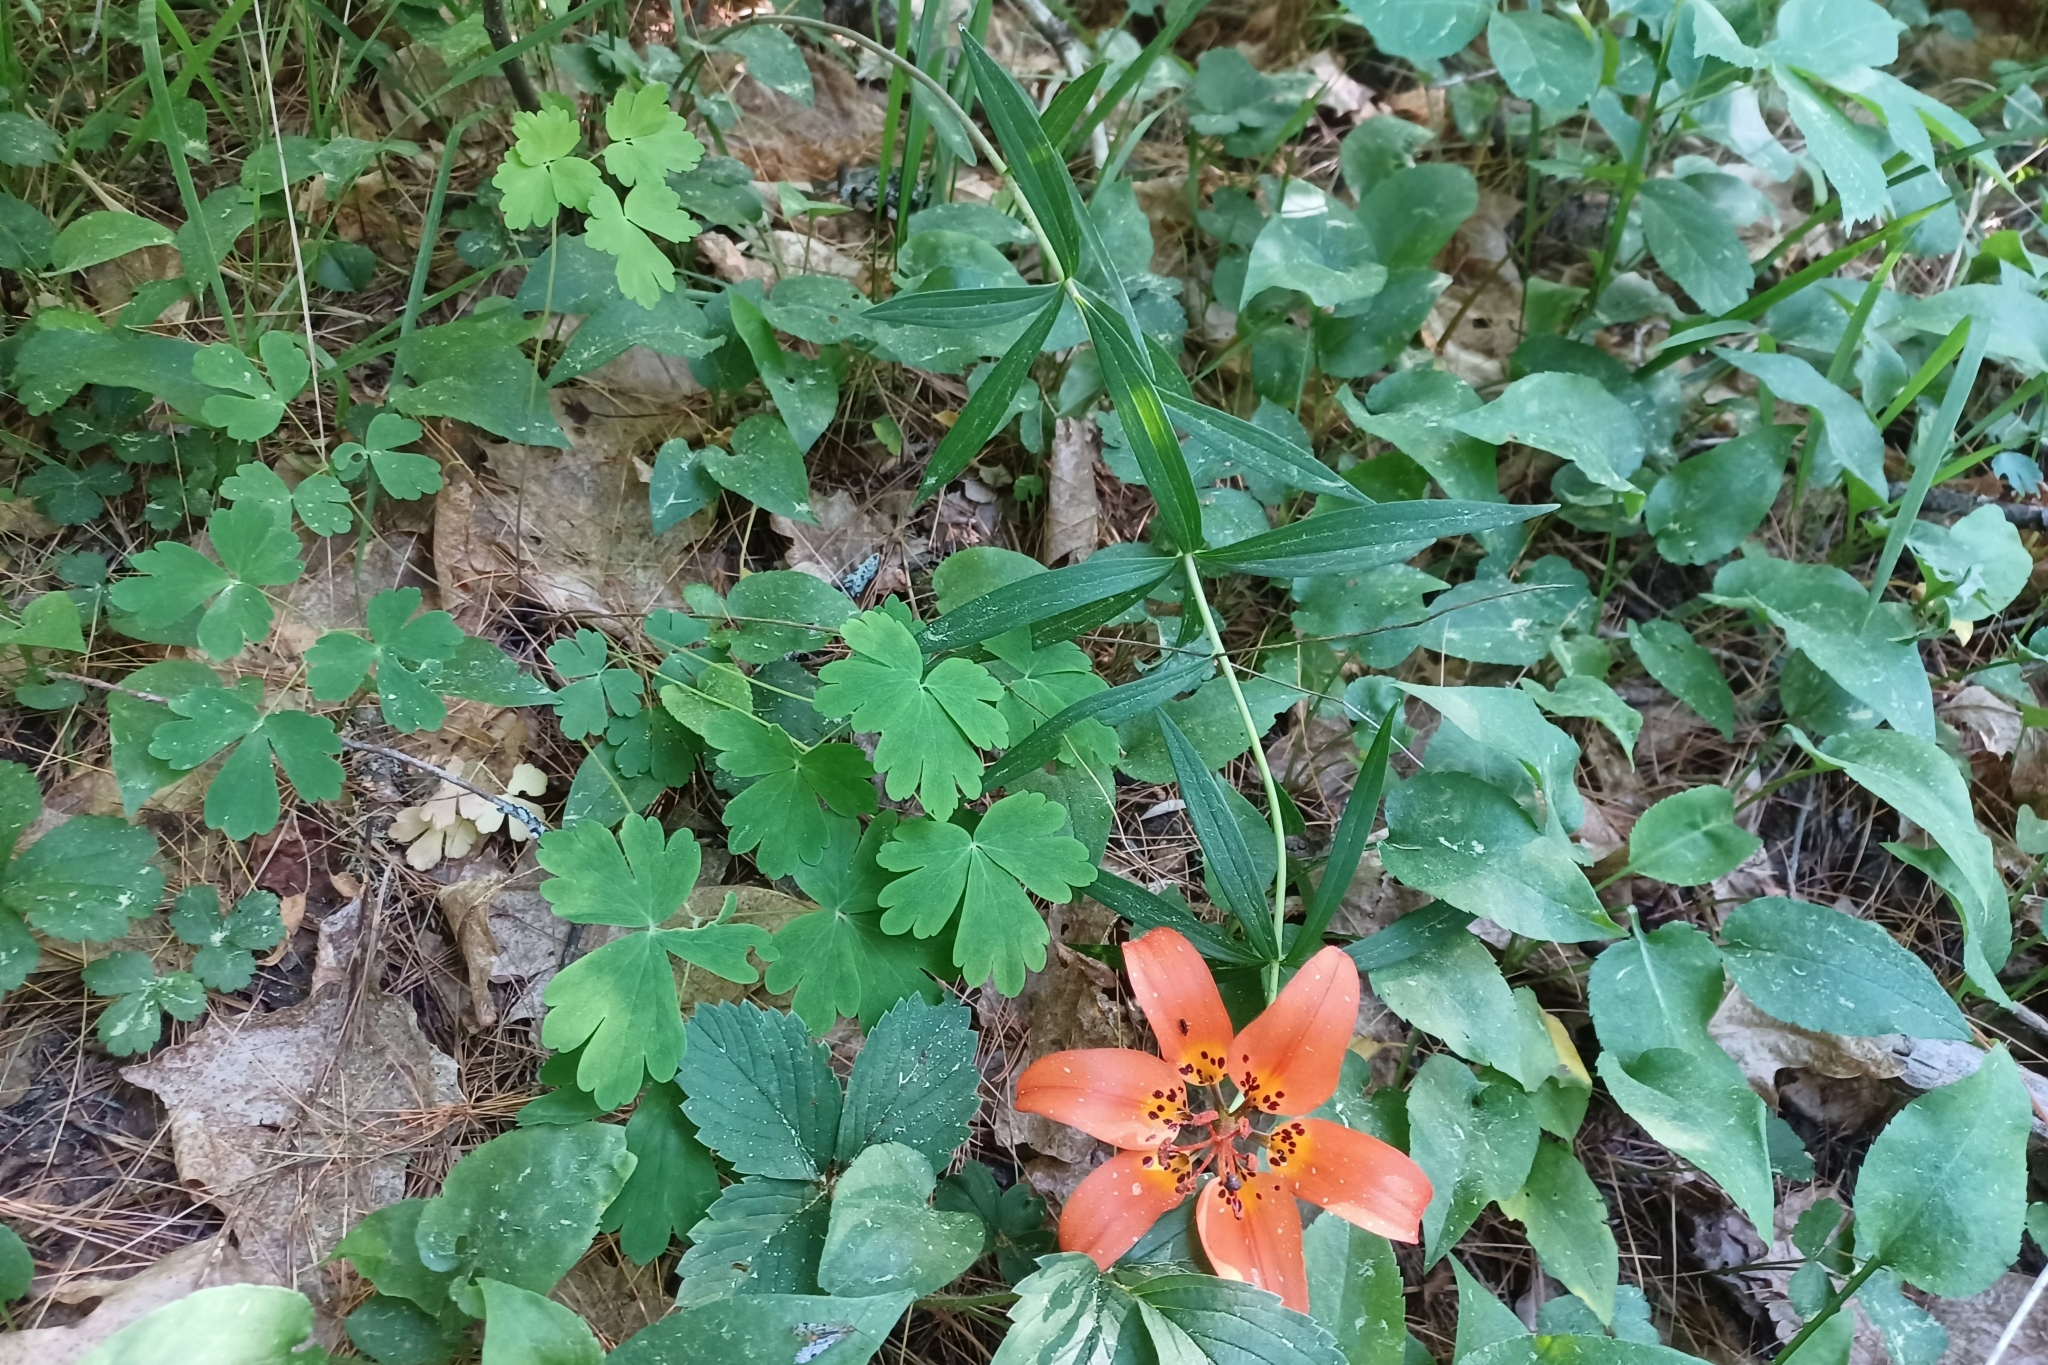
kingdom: Plantae
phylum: Tracheophyta
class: Liliopsida
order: Liliales
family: Liliaceae
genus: Lilium
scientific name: Lilium philadelphicum
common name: Red lily
